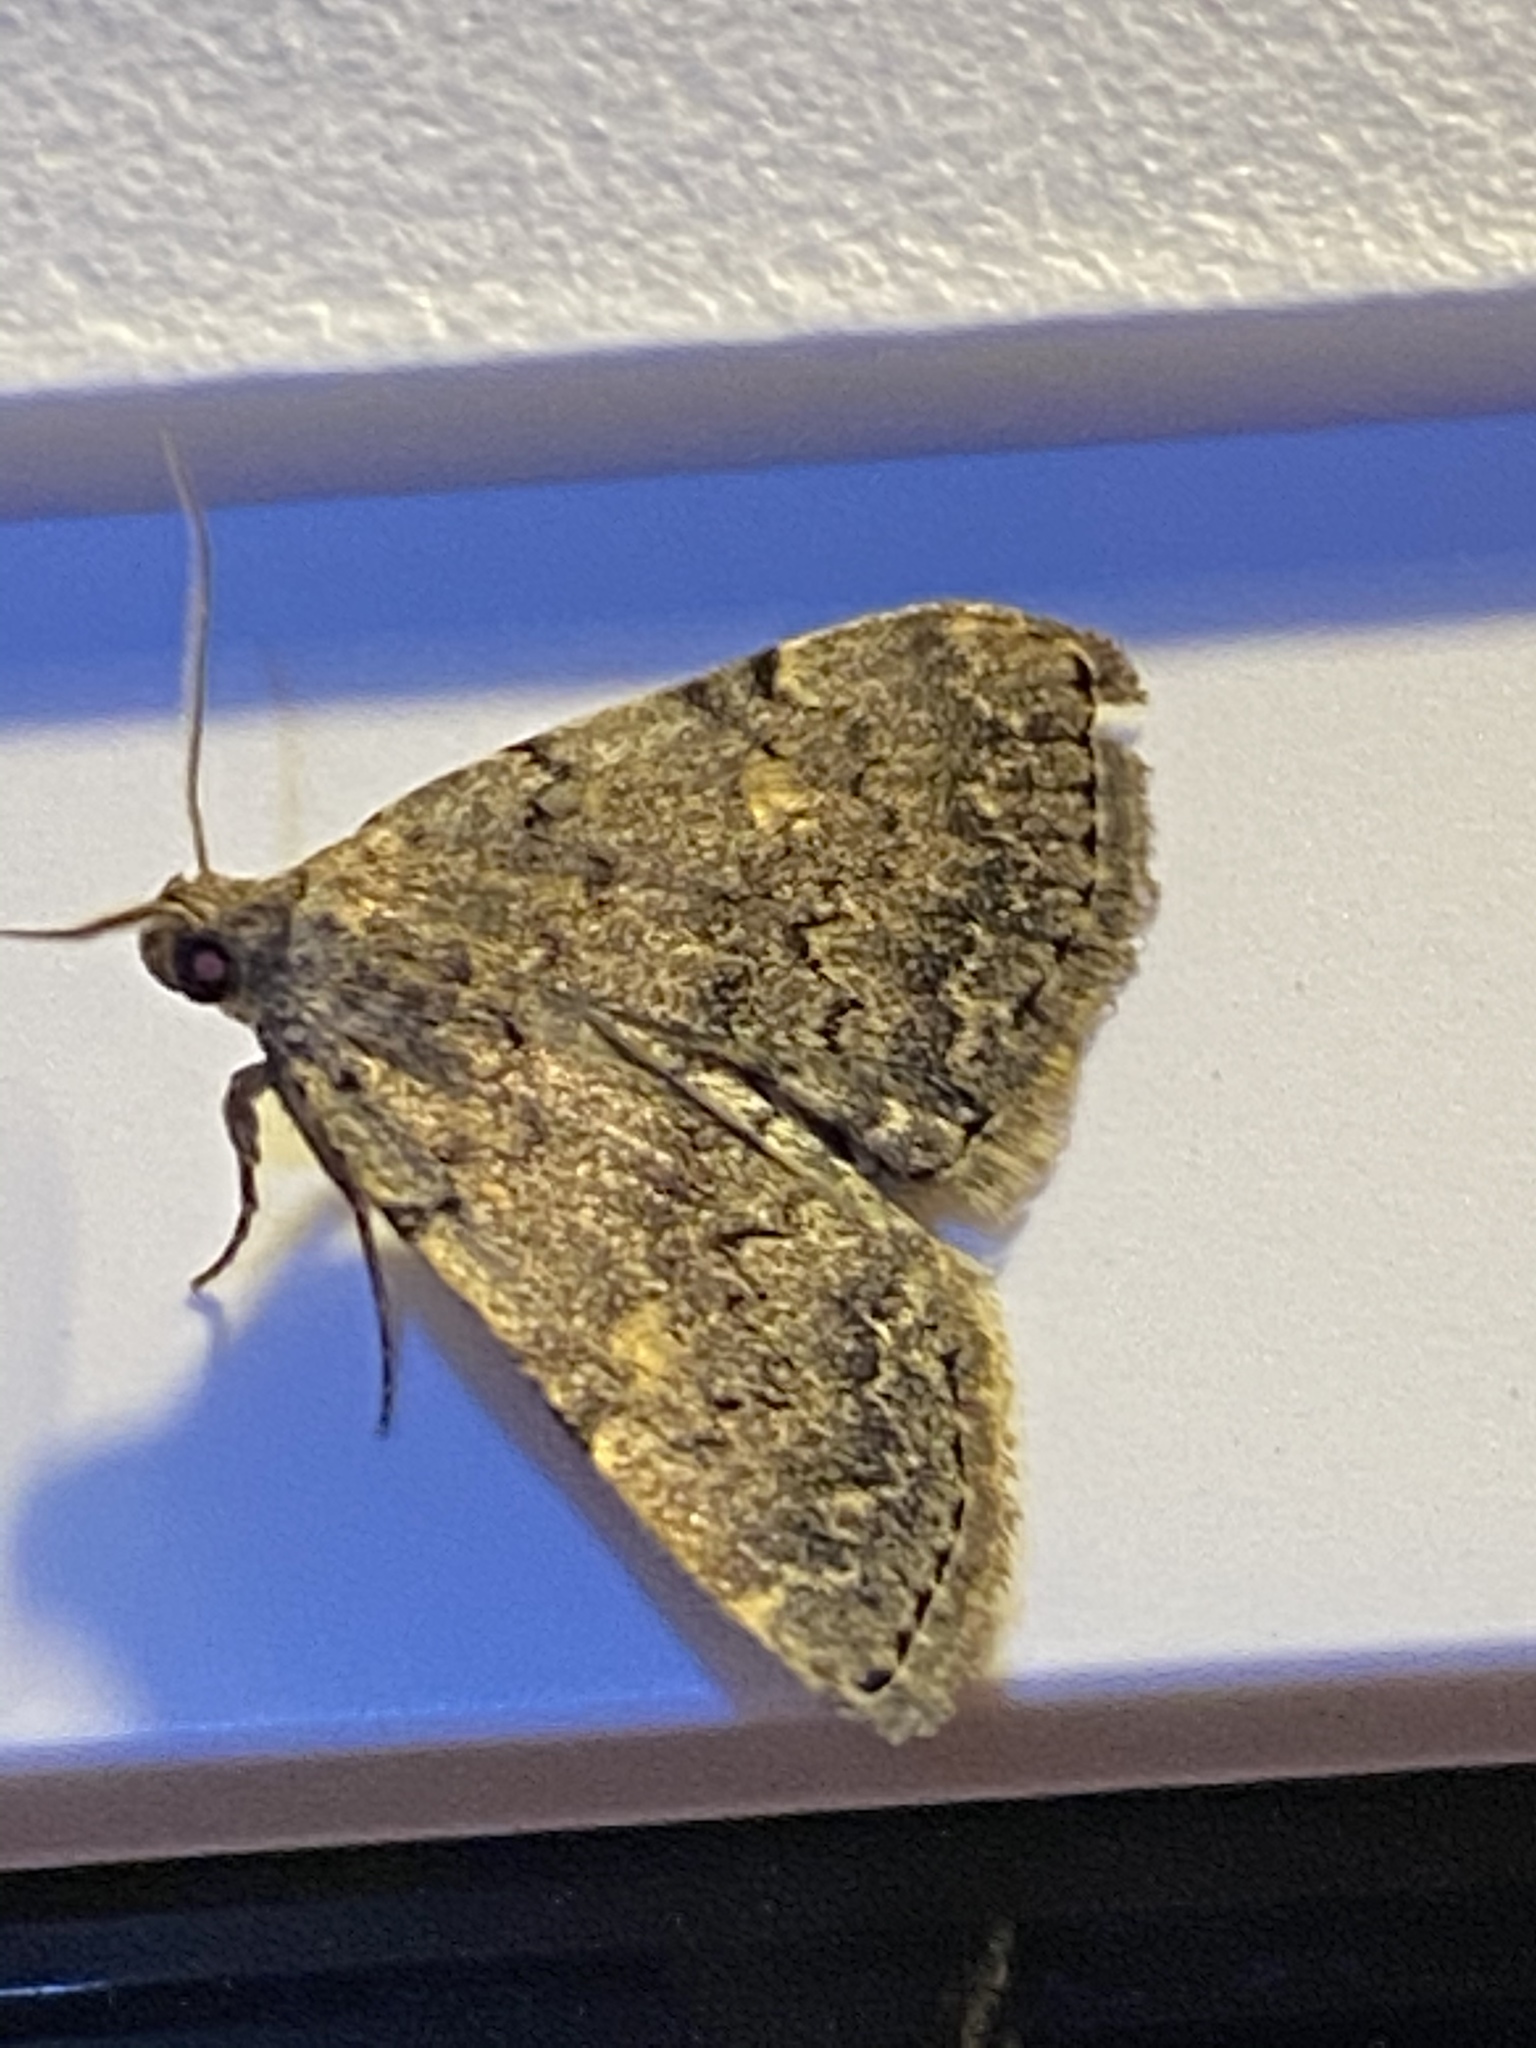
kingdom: Animalia
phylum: Arthropoda
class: Insecta
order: Lepidoptera
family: Erebidae
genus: Idia
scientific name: Idia aemula
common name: Common idia moth
